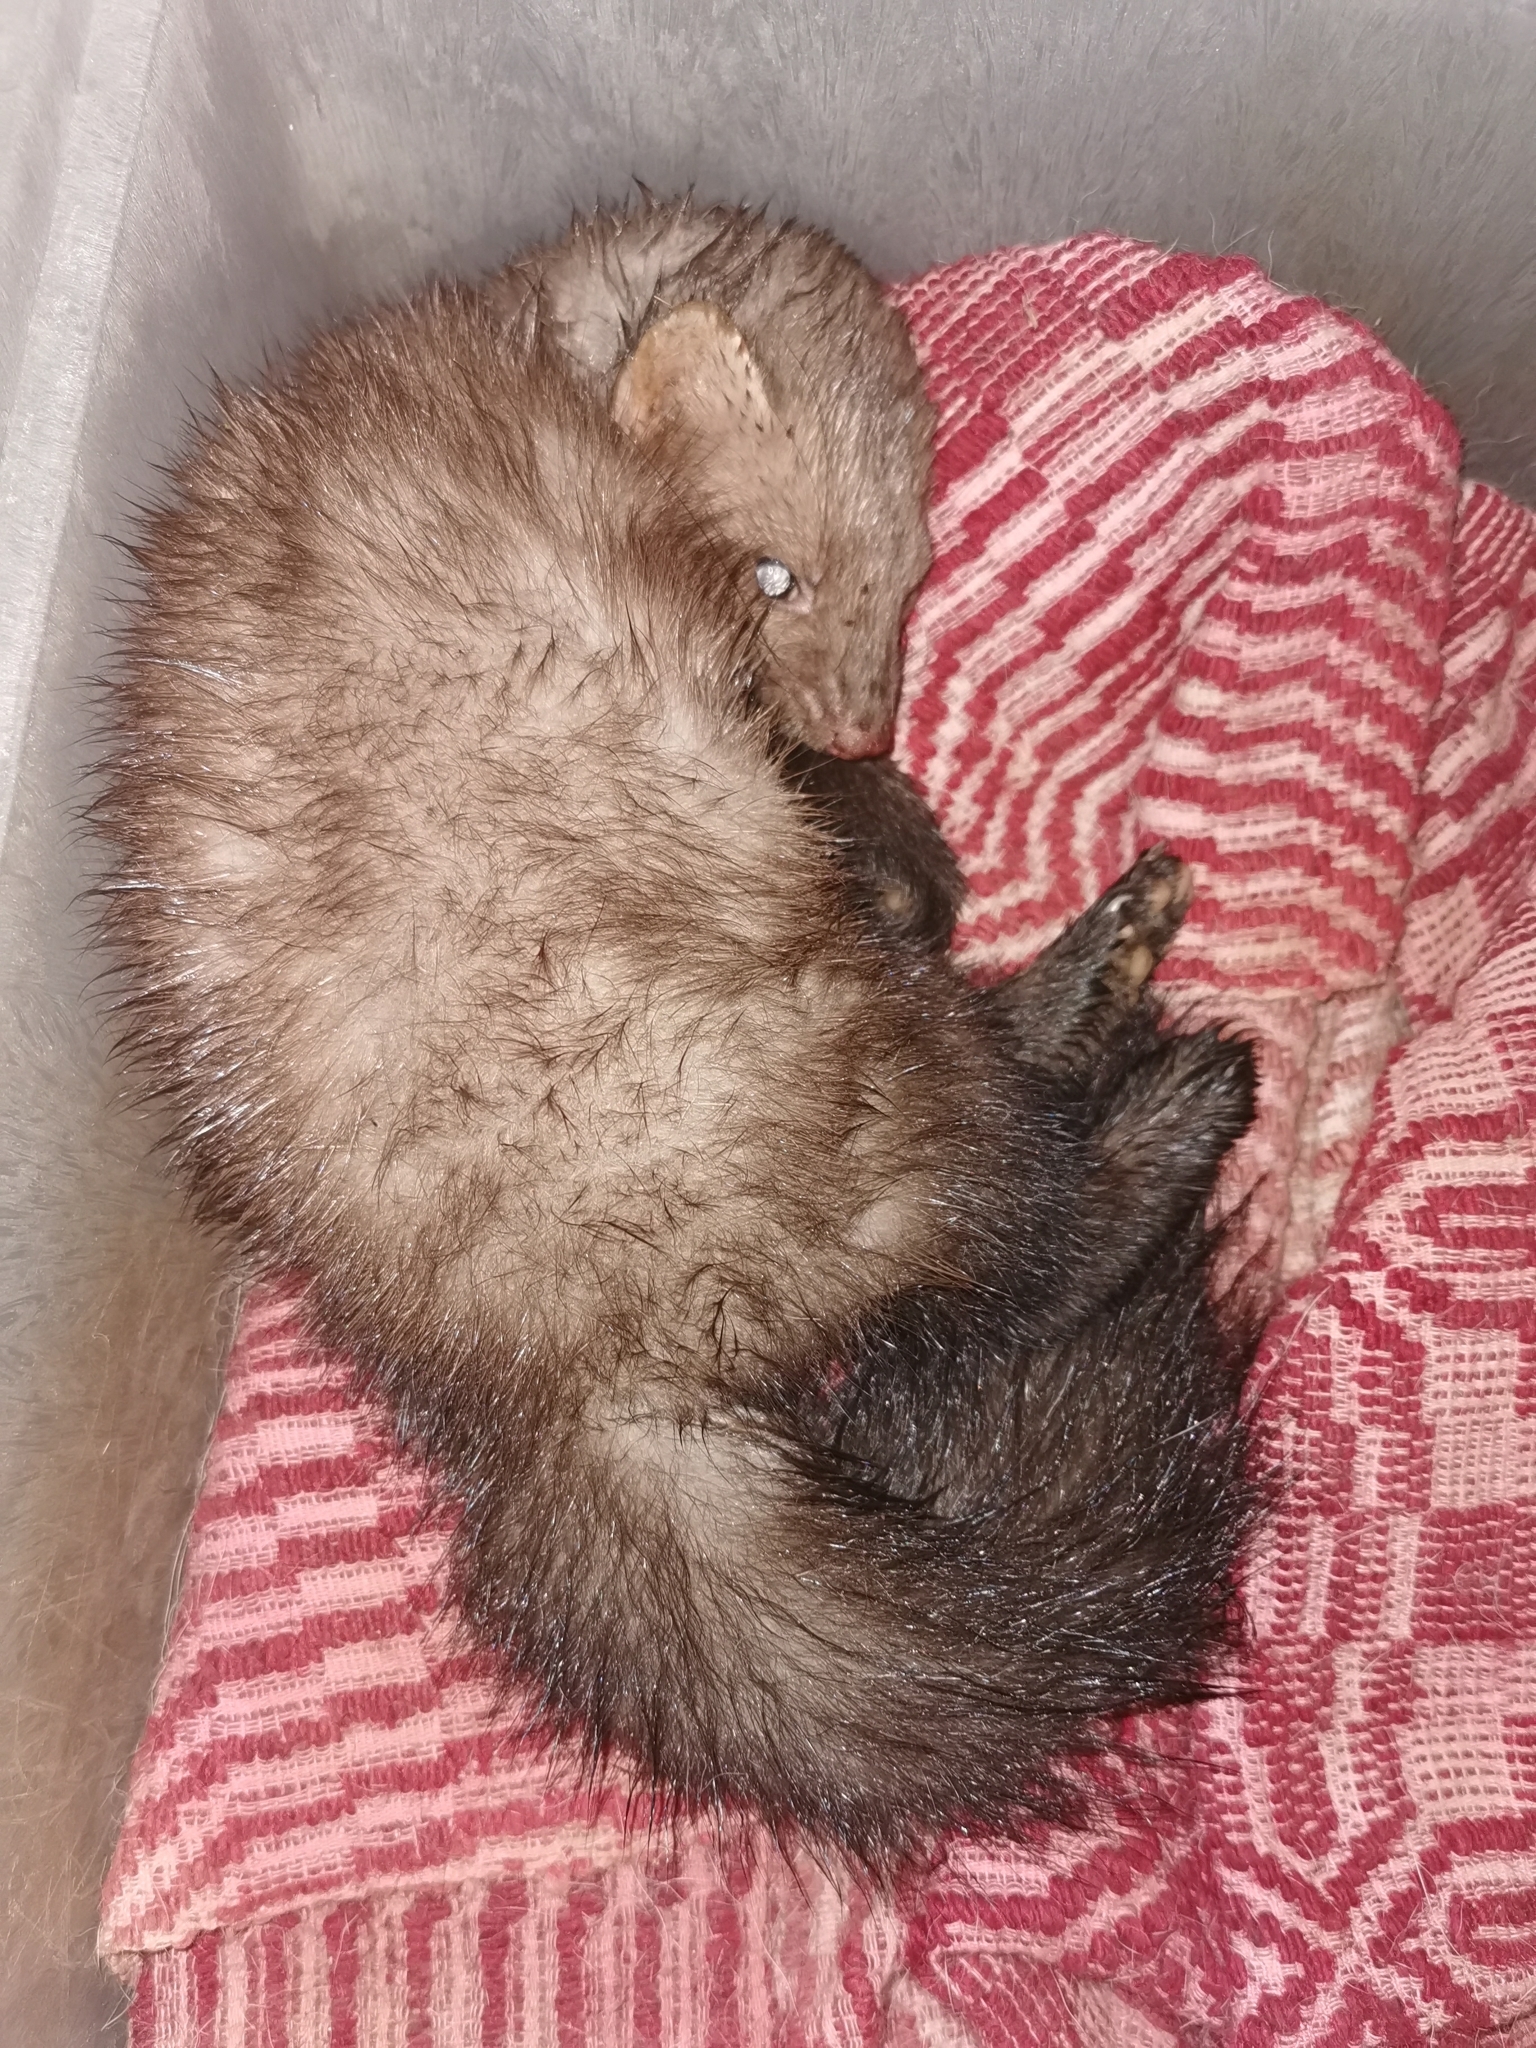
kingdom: Animalia
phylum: Chordata
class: Mammalia
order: Carnivora
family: Mustelidae
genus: Martes
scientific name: Martes foina
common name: Beech marten
